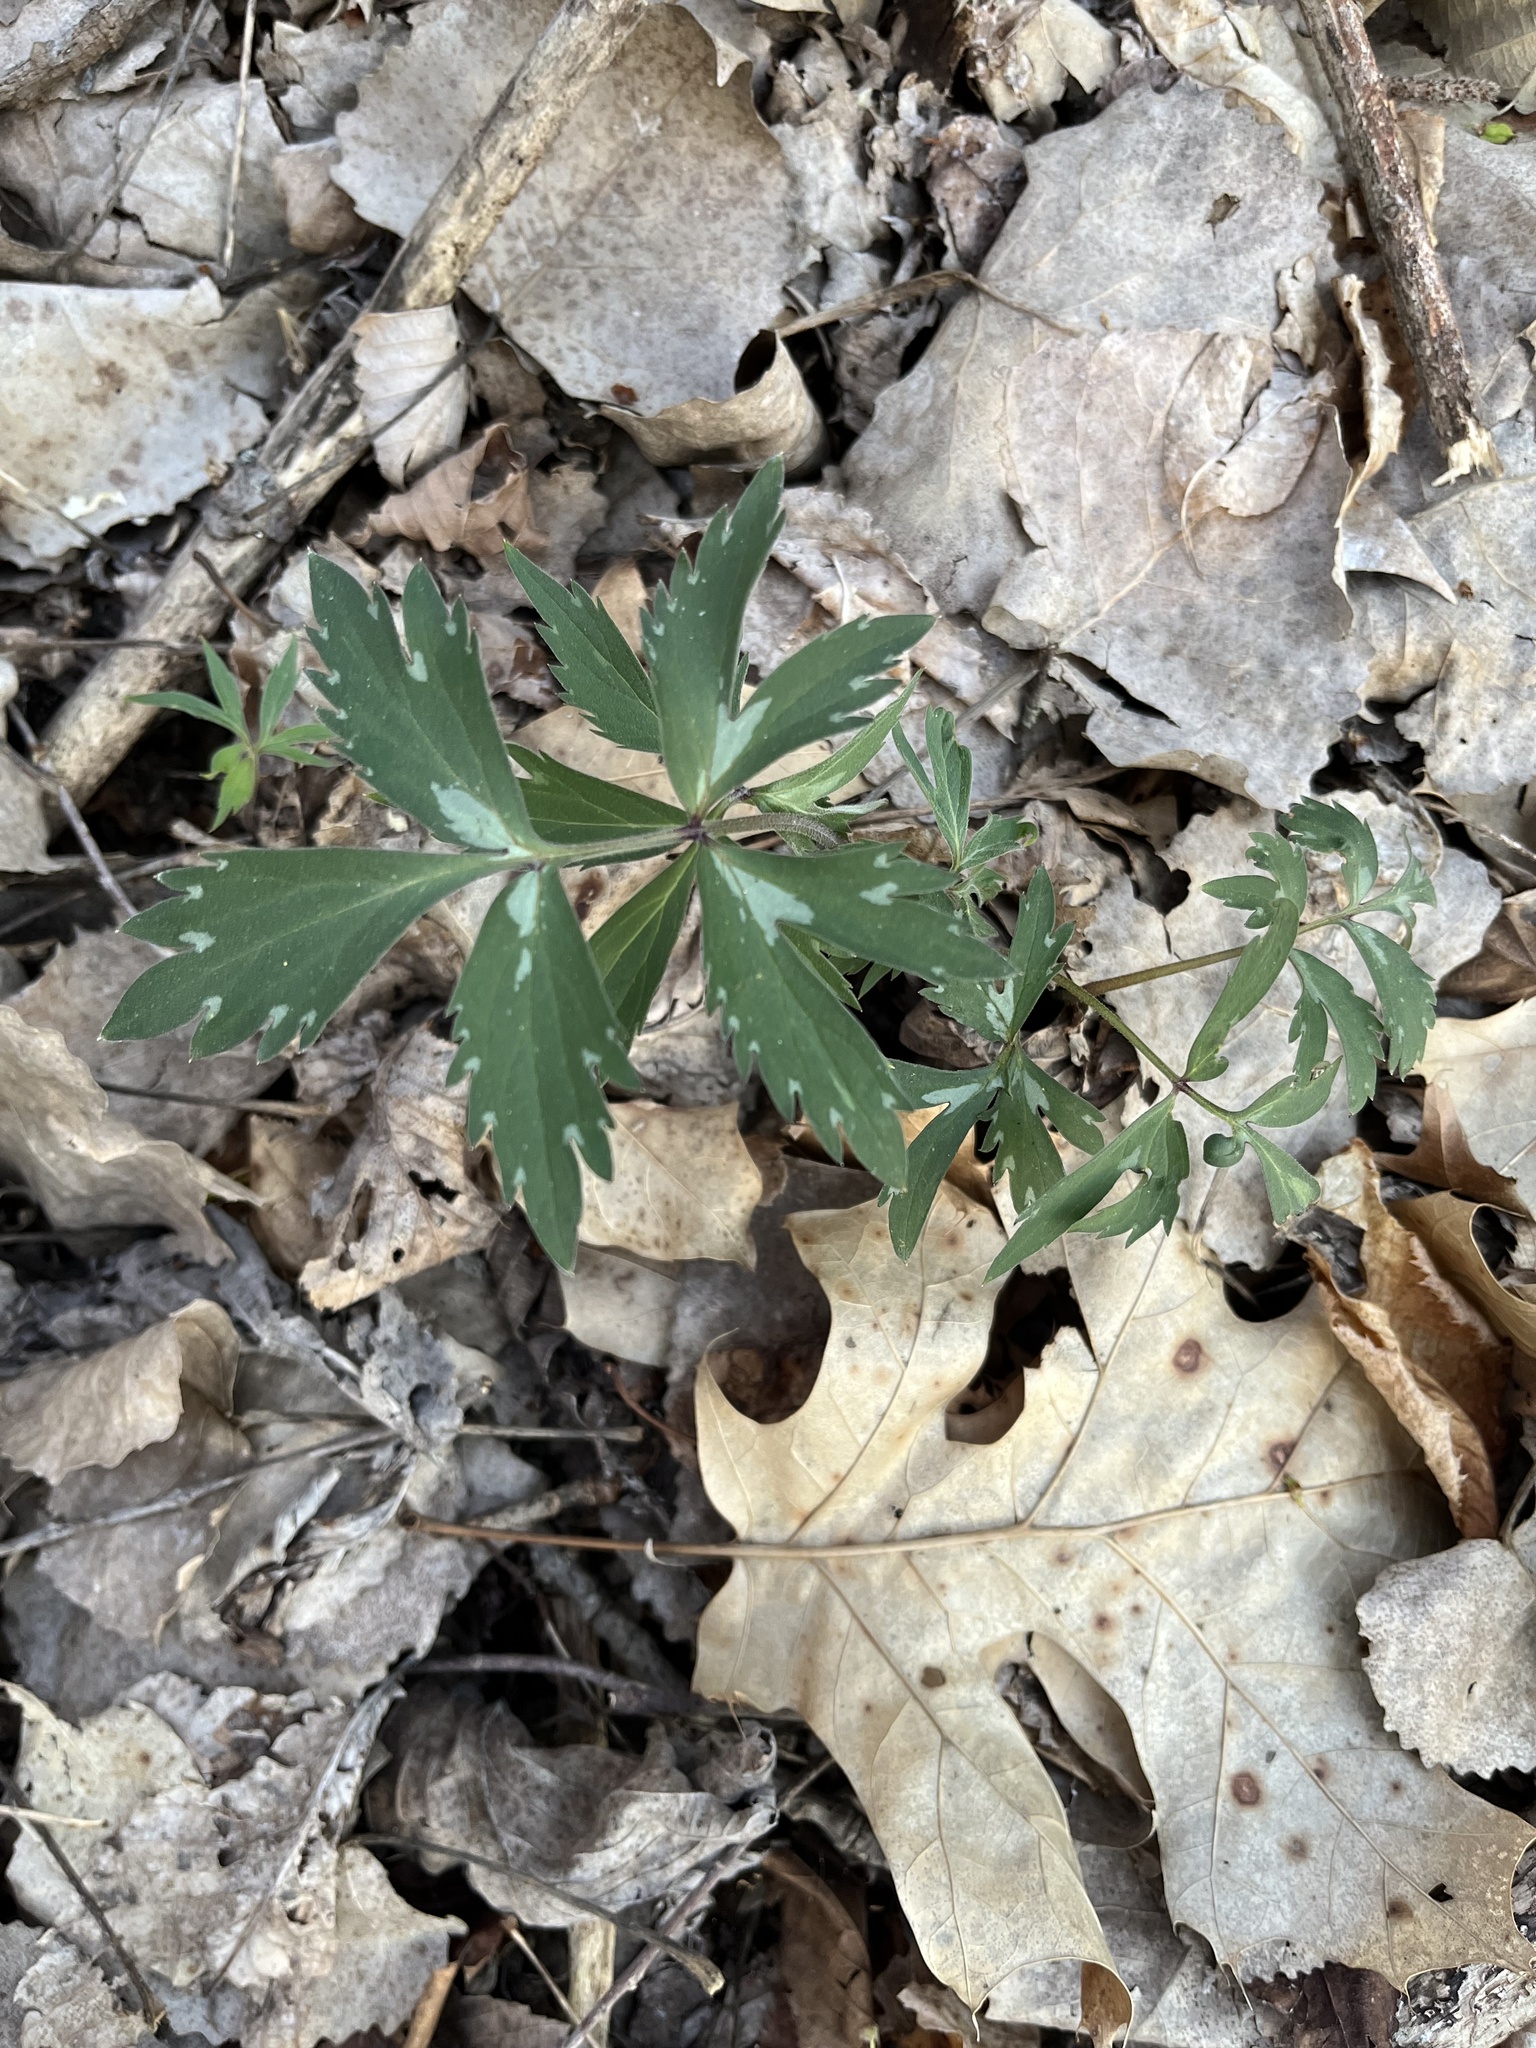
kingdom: Plantae
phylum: Tracheophyta
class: Magnoliopsida
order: Boraginales
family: Hydrophyllaceae
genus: Hydrophyllum
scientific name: Hydrophyllum virginianum
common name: Virginia waterleaf
